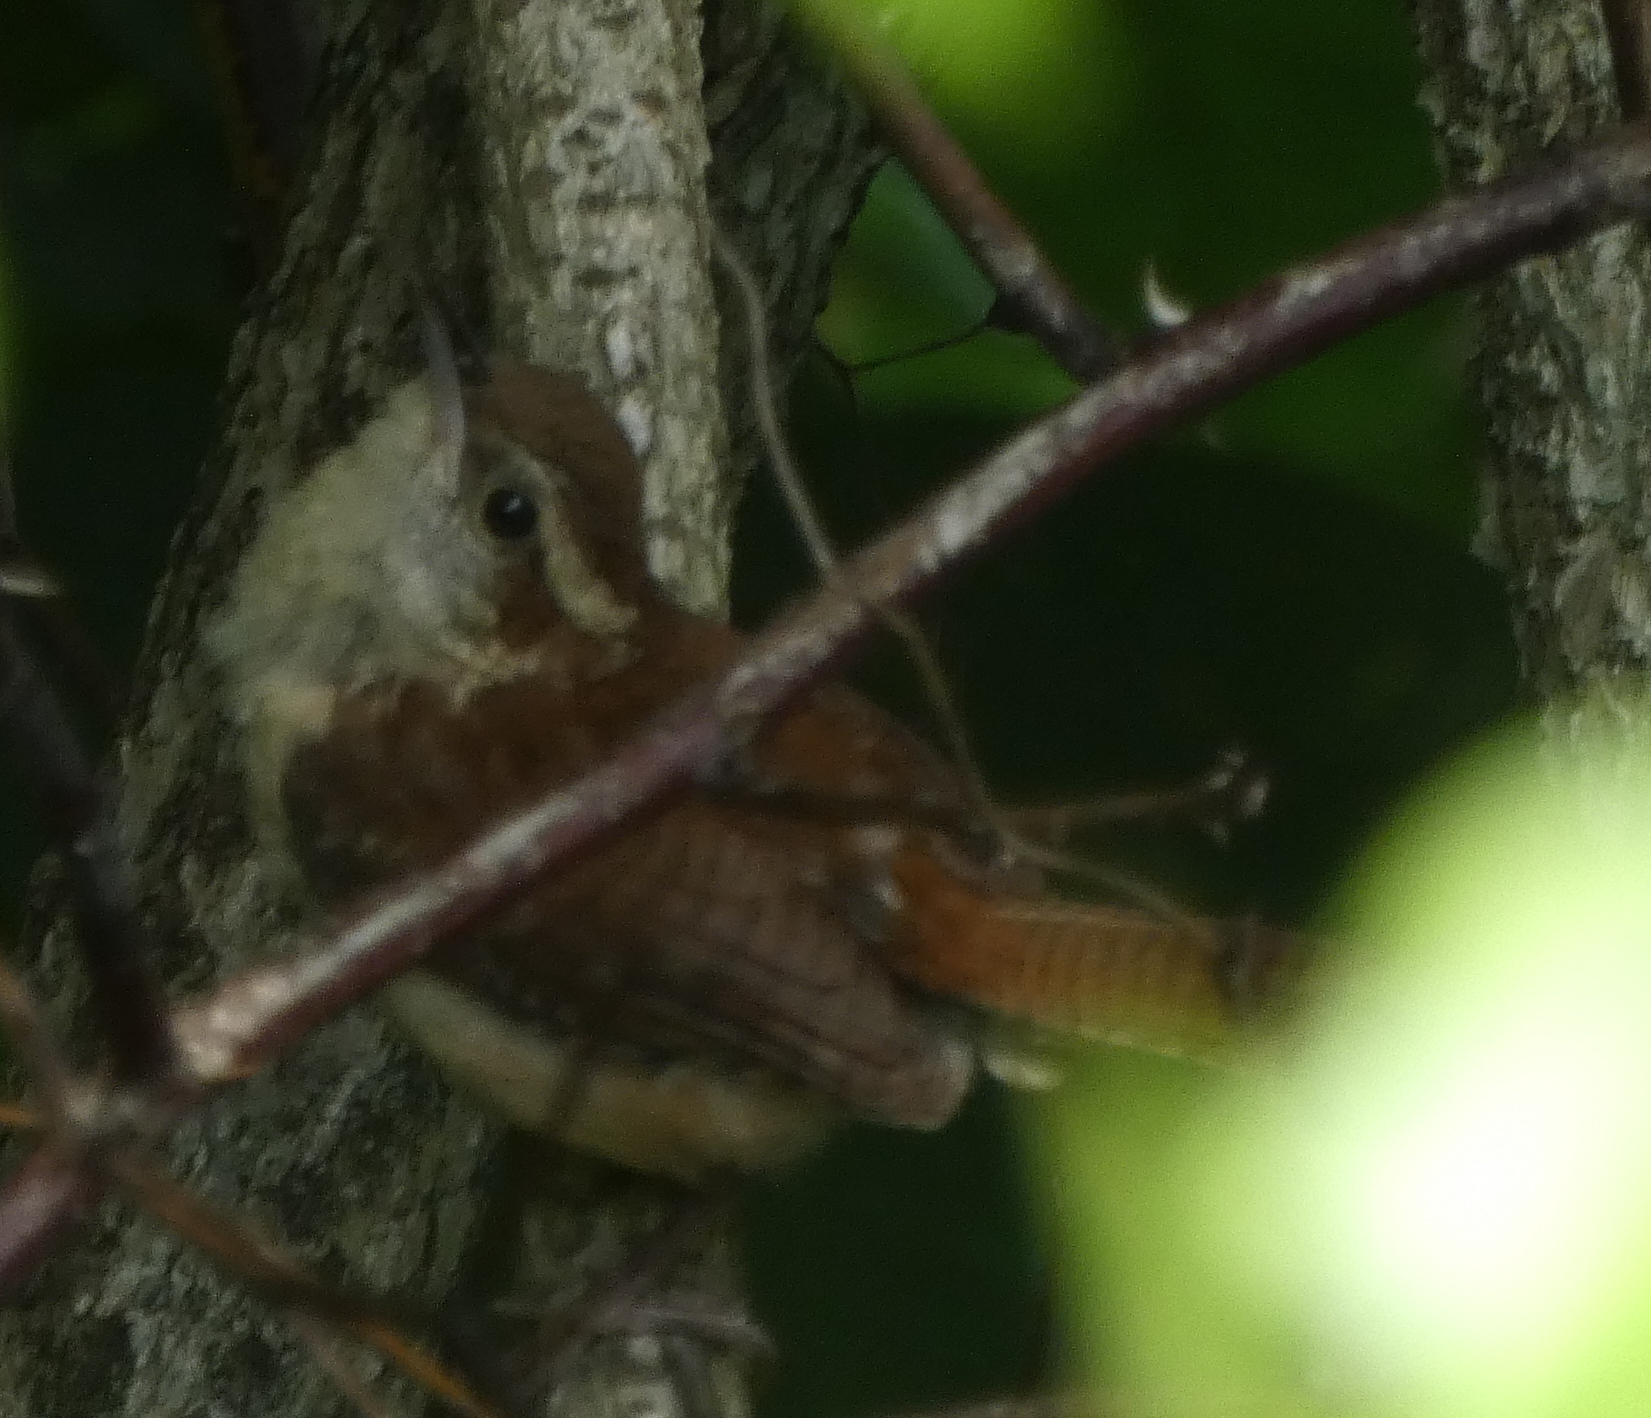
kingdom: Animalia
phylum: Chordata
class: Aves
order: Passeriformes
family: Troglodytidae
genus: Thryothorus
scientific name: Thryothorus ludovicianus
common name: Carolina wren
